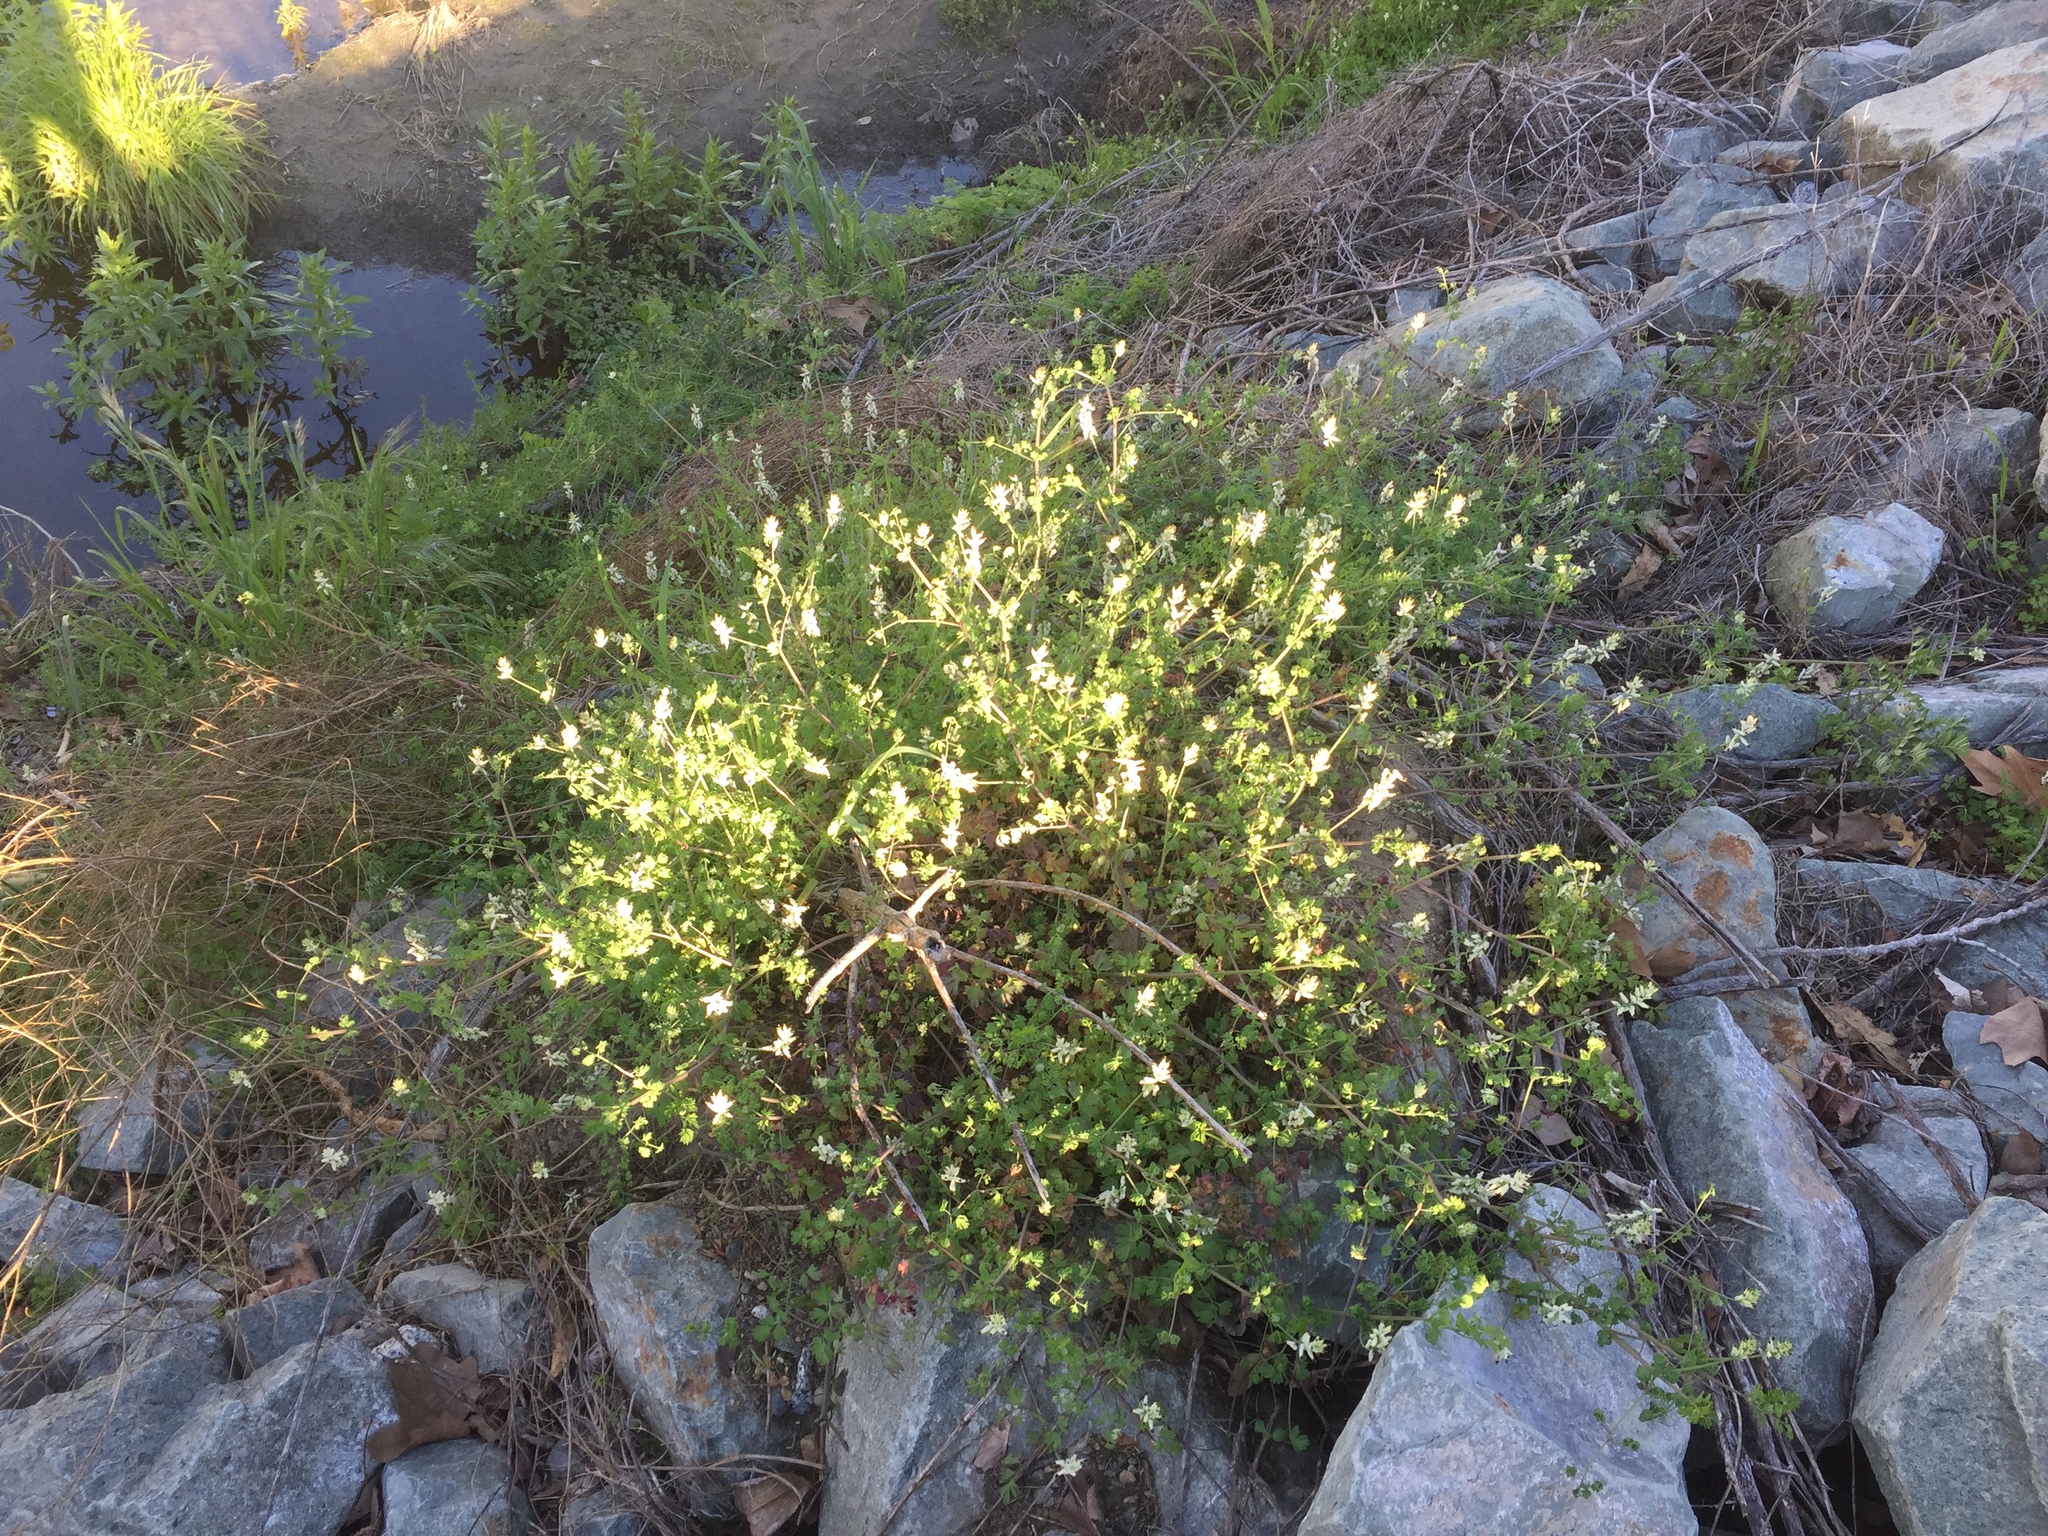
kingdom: Plantae
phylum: Tracheophyta
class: Magnoliopsida
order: Ranunculales
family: Papaveraceae
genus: Fumaria
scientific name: Fumaria capreolata
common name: White ramping-fumitory
